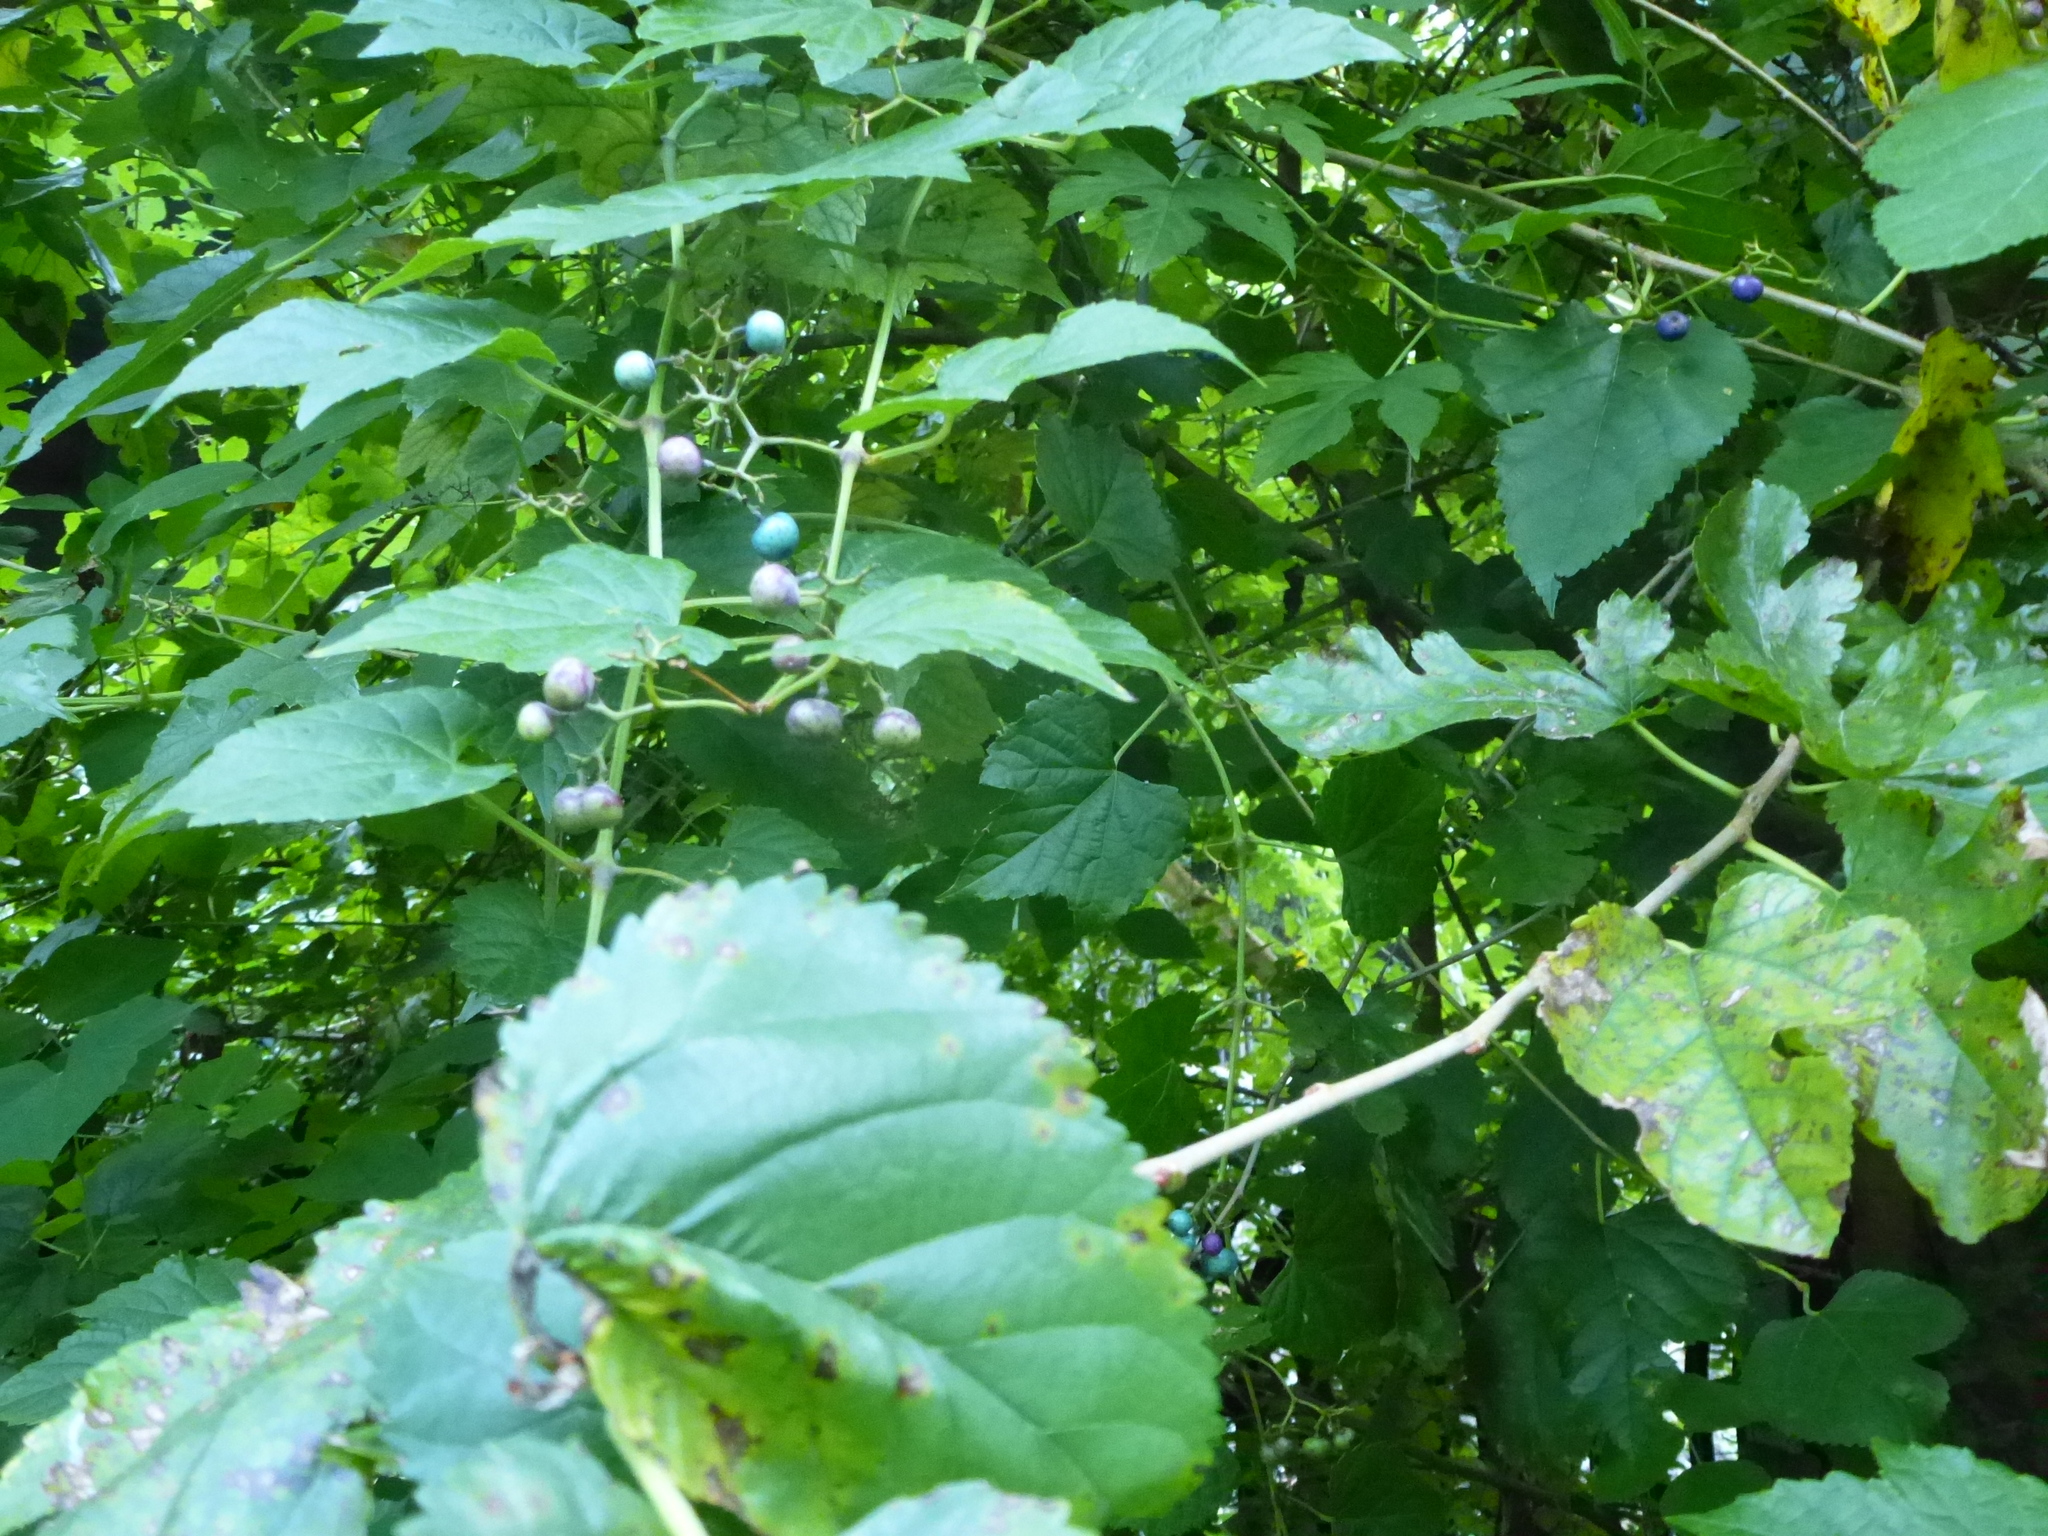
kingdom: Plantae
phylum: Tracheophyta
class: Magnoliopsida
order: Vitales
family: Vitaceae
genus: Ampelopsis
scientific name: Ampelopsis glandulosa
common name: Amur peppervine
